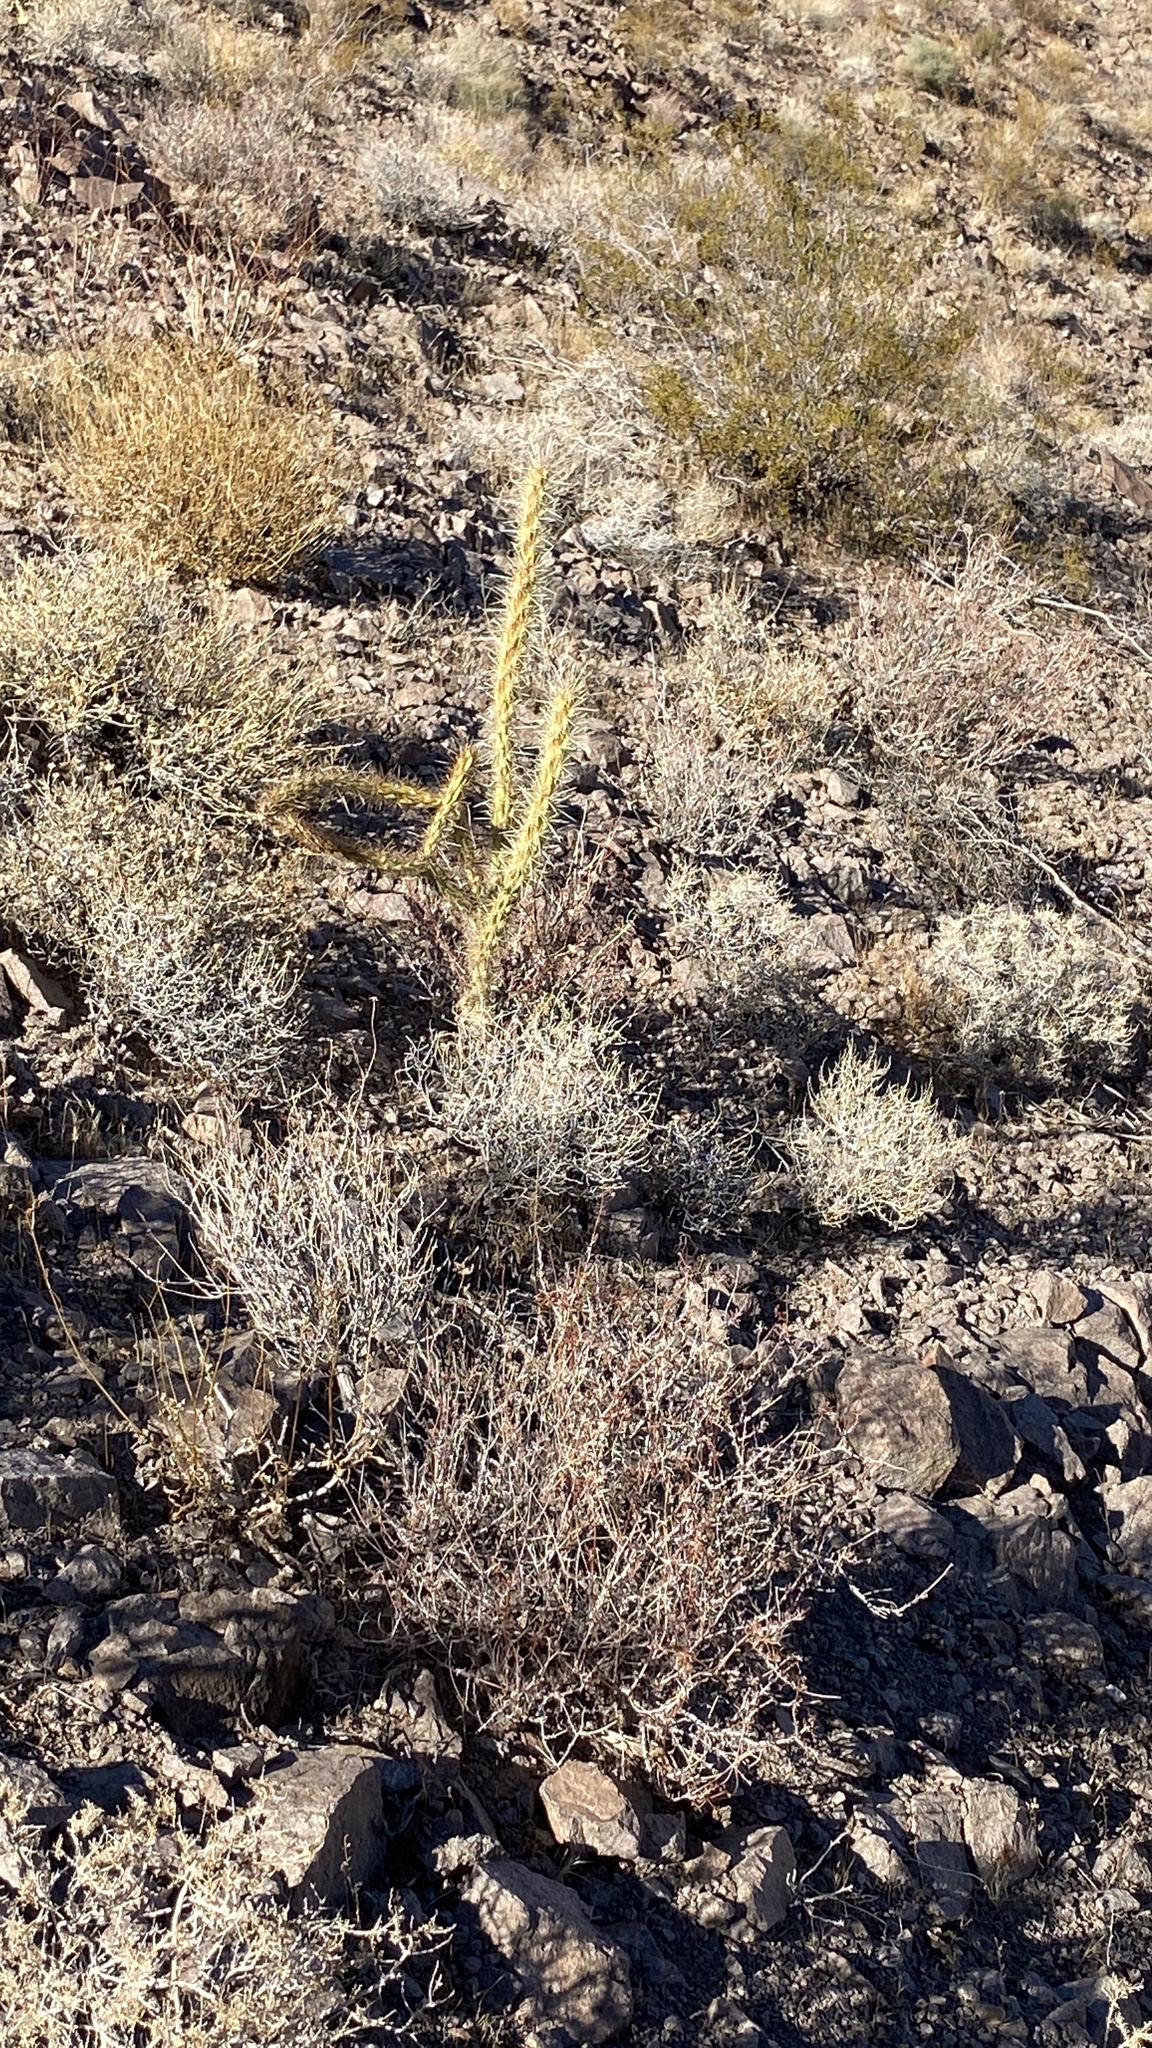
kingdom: Plantae
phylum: Tracheophyta
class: Magnoliopsida
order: Caryophyllales
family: Cactaceae
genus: Cylindropuntia
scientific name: Cylindropuntia acanthocarpa
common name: Buckhorn cholla
